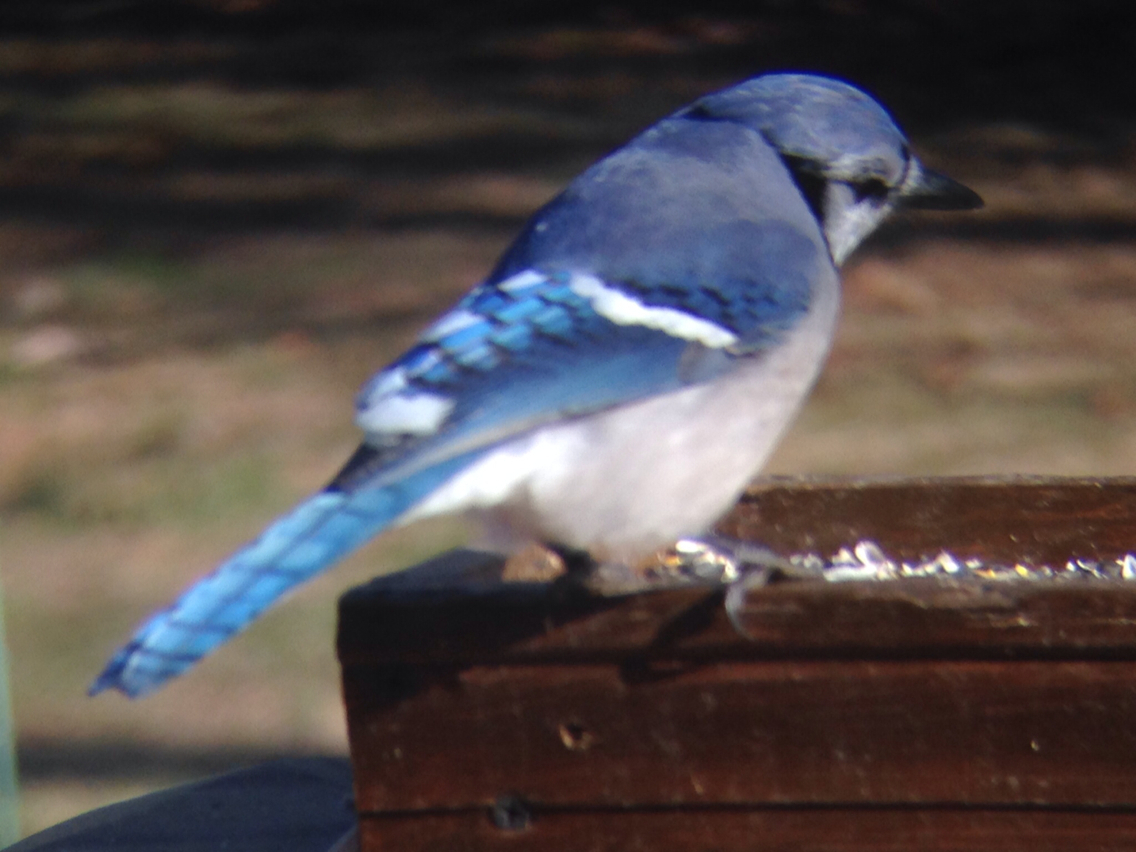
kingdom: Animalia
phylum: Chordata
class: Aves
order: Passeriformes
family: Corvidae
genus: Cyanocitta
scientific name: Cyanocitta cristata
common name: Blue jay
